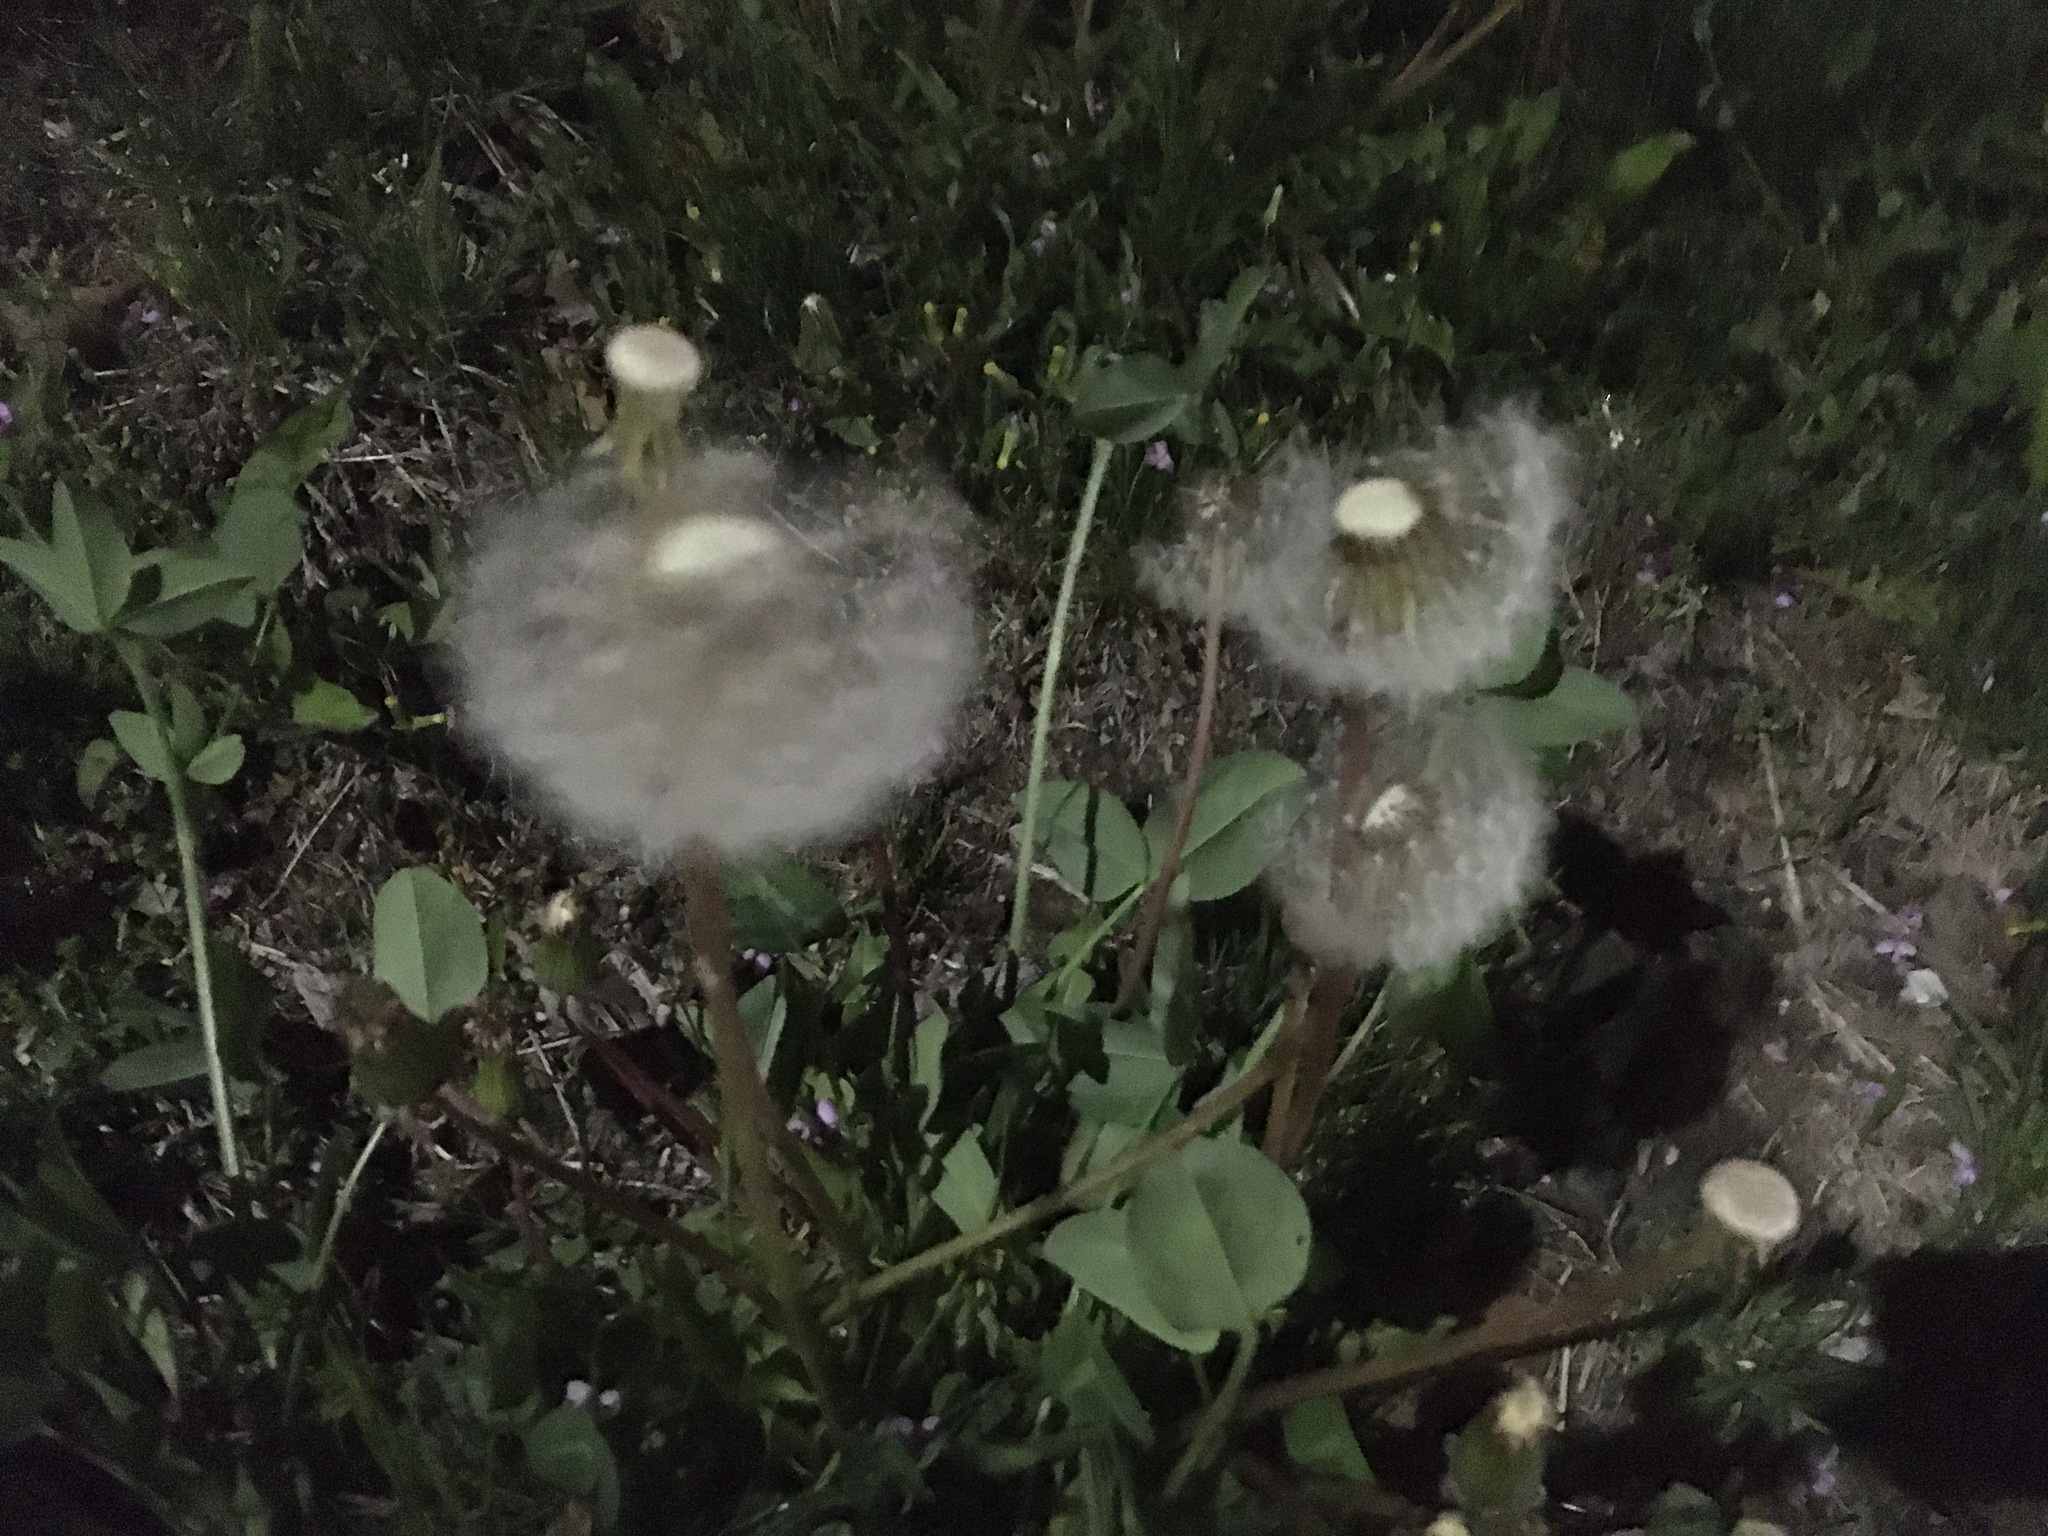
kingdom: Plantae
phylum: Tracheophyta
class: Magnoliopsida
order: Asterales
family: Asteraceae
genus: Taraxacum
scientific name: Taraxacum officinale
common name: Common dandelion
